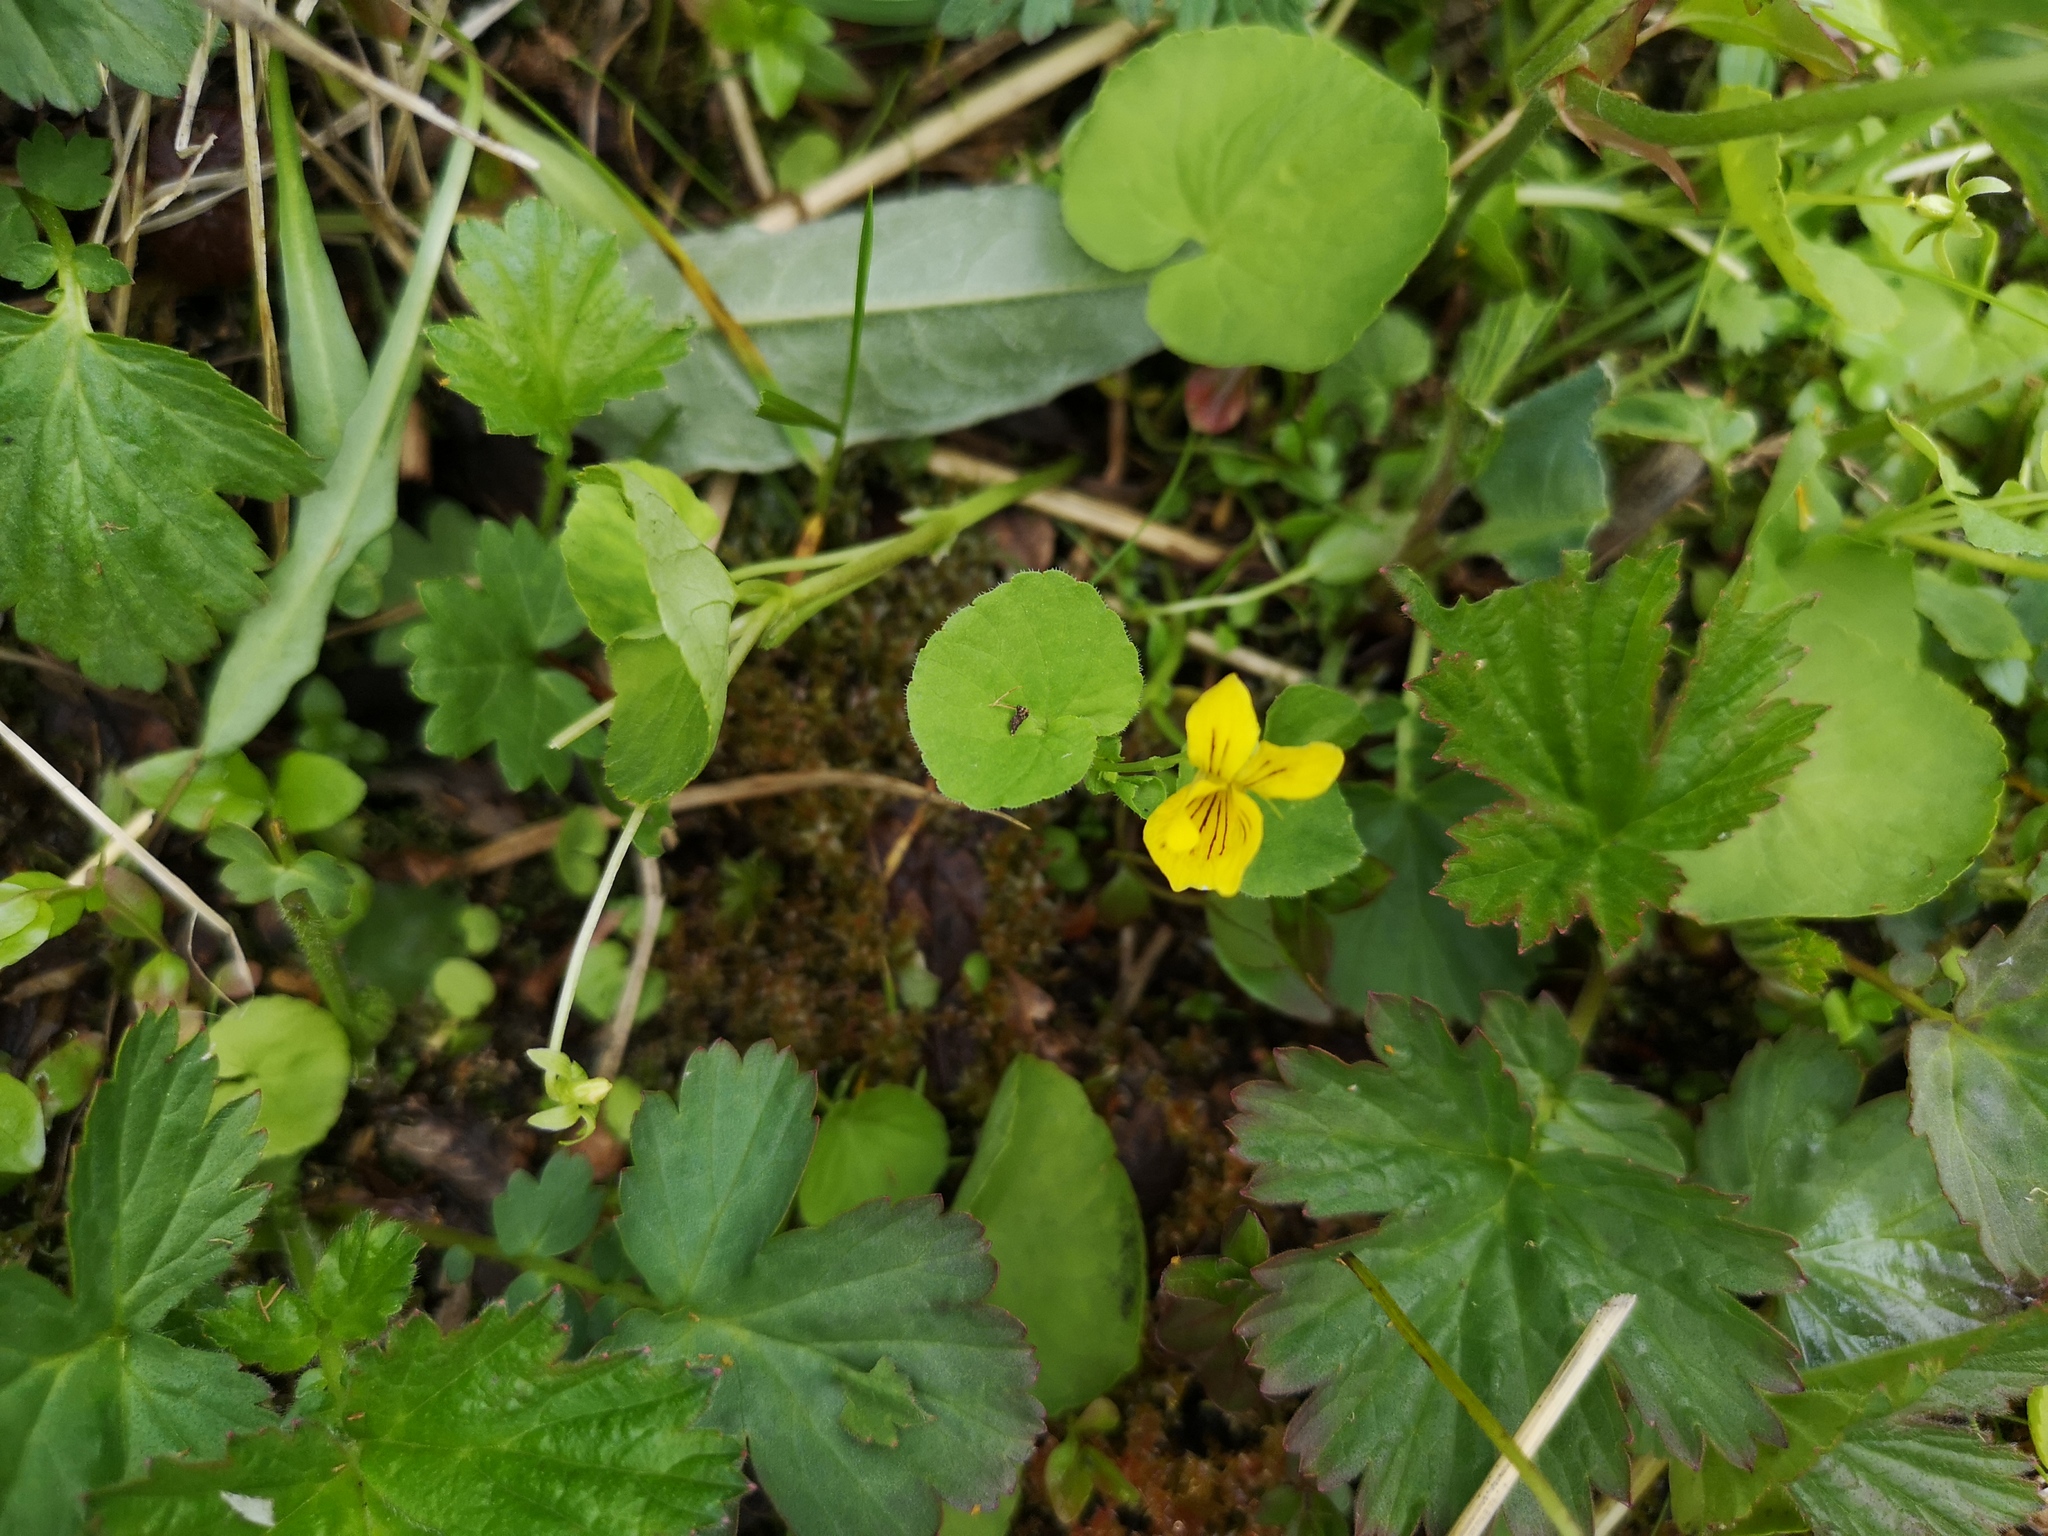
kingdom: Plantae
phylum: Tracheophyta
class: Magnoliopsida
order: Malpighiales
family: Violaceae
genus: Viola
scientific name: Viola biflora
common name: Alpine yellow violet
